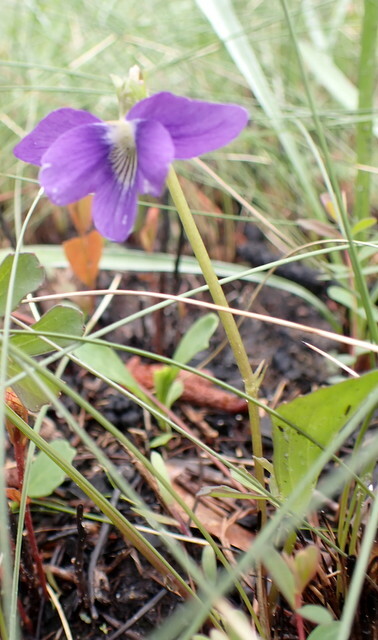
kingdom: Plantae
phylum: Tracheophyta
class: Magnoliopsida
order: Malpighiales
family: Violaceae
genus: Viola
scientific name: Viola septemloba
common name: Southern coast violet
